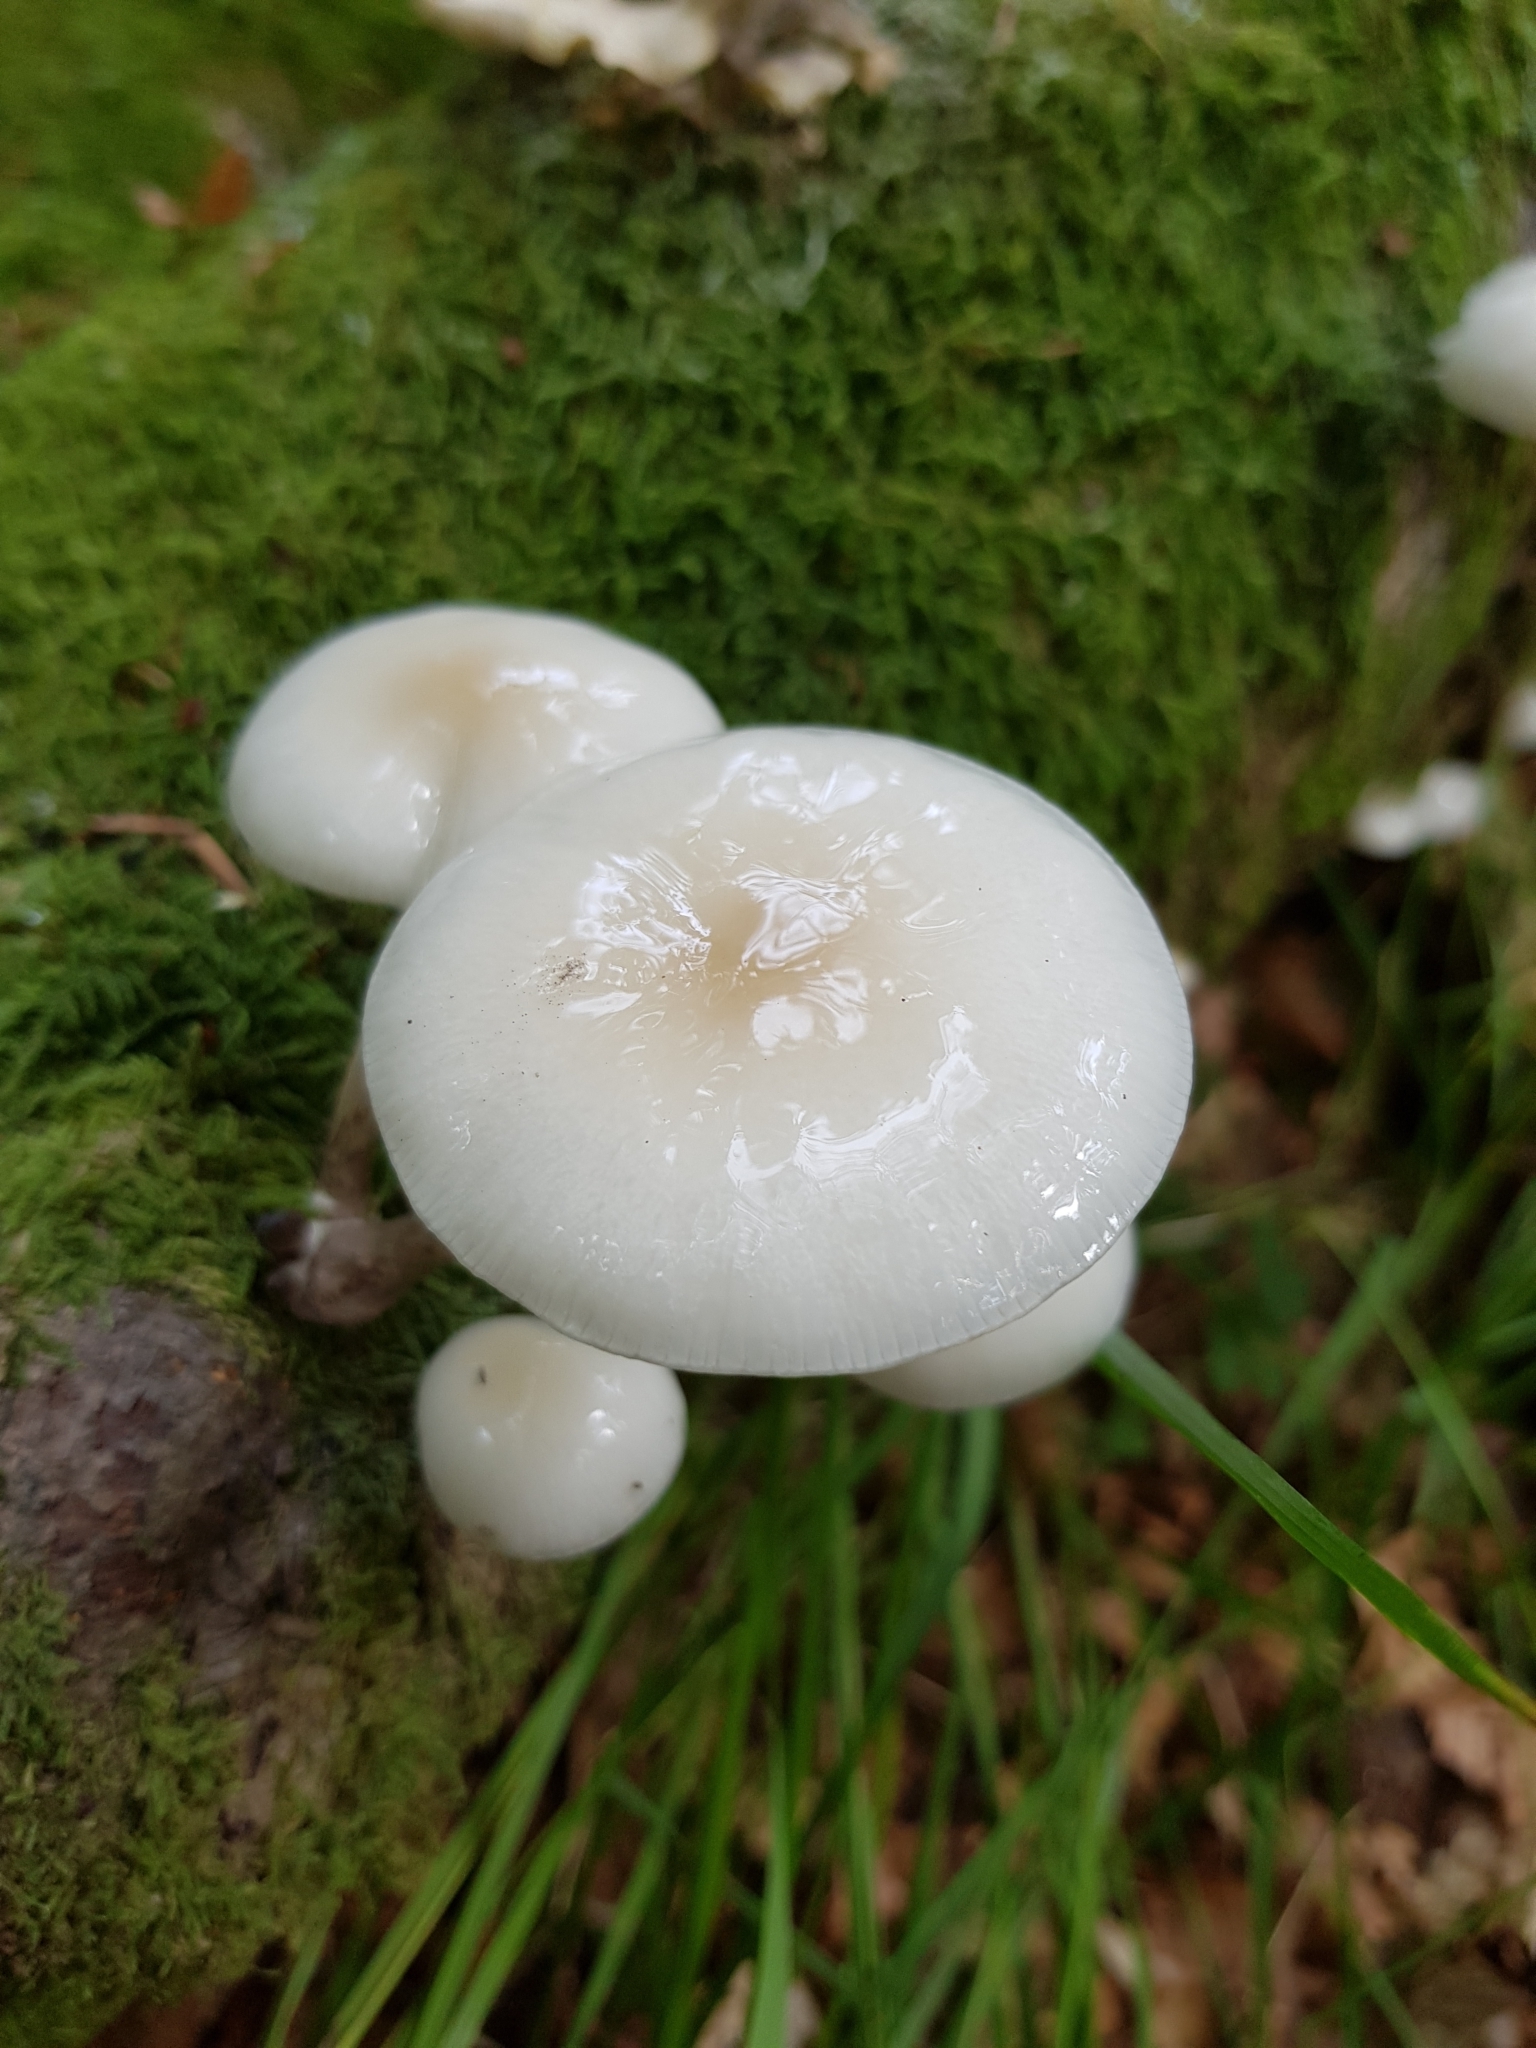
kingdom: Fungi
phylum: Basidiomycota
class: Agaricomycetes
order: Agaricales
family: Physalacriaceae
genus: Mucidula
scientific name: Mucidula mucida
